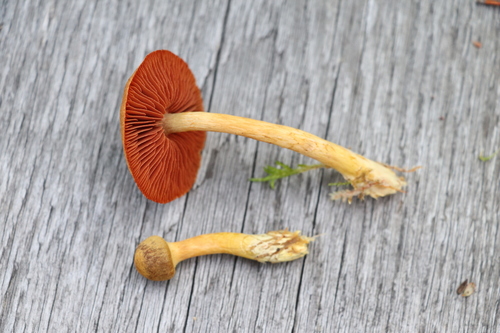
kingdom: Fungi
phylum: Basidiomycota
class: Agaricomycetes
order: Agaricales
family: Cortinariaceae
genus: Cortinarius
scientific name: Cortinarius semisanguineus
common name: Surprise webcap
